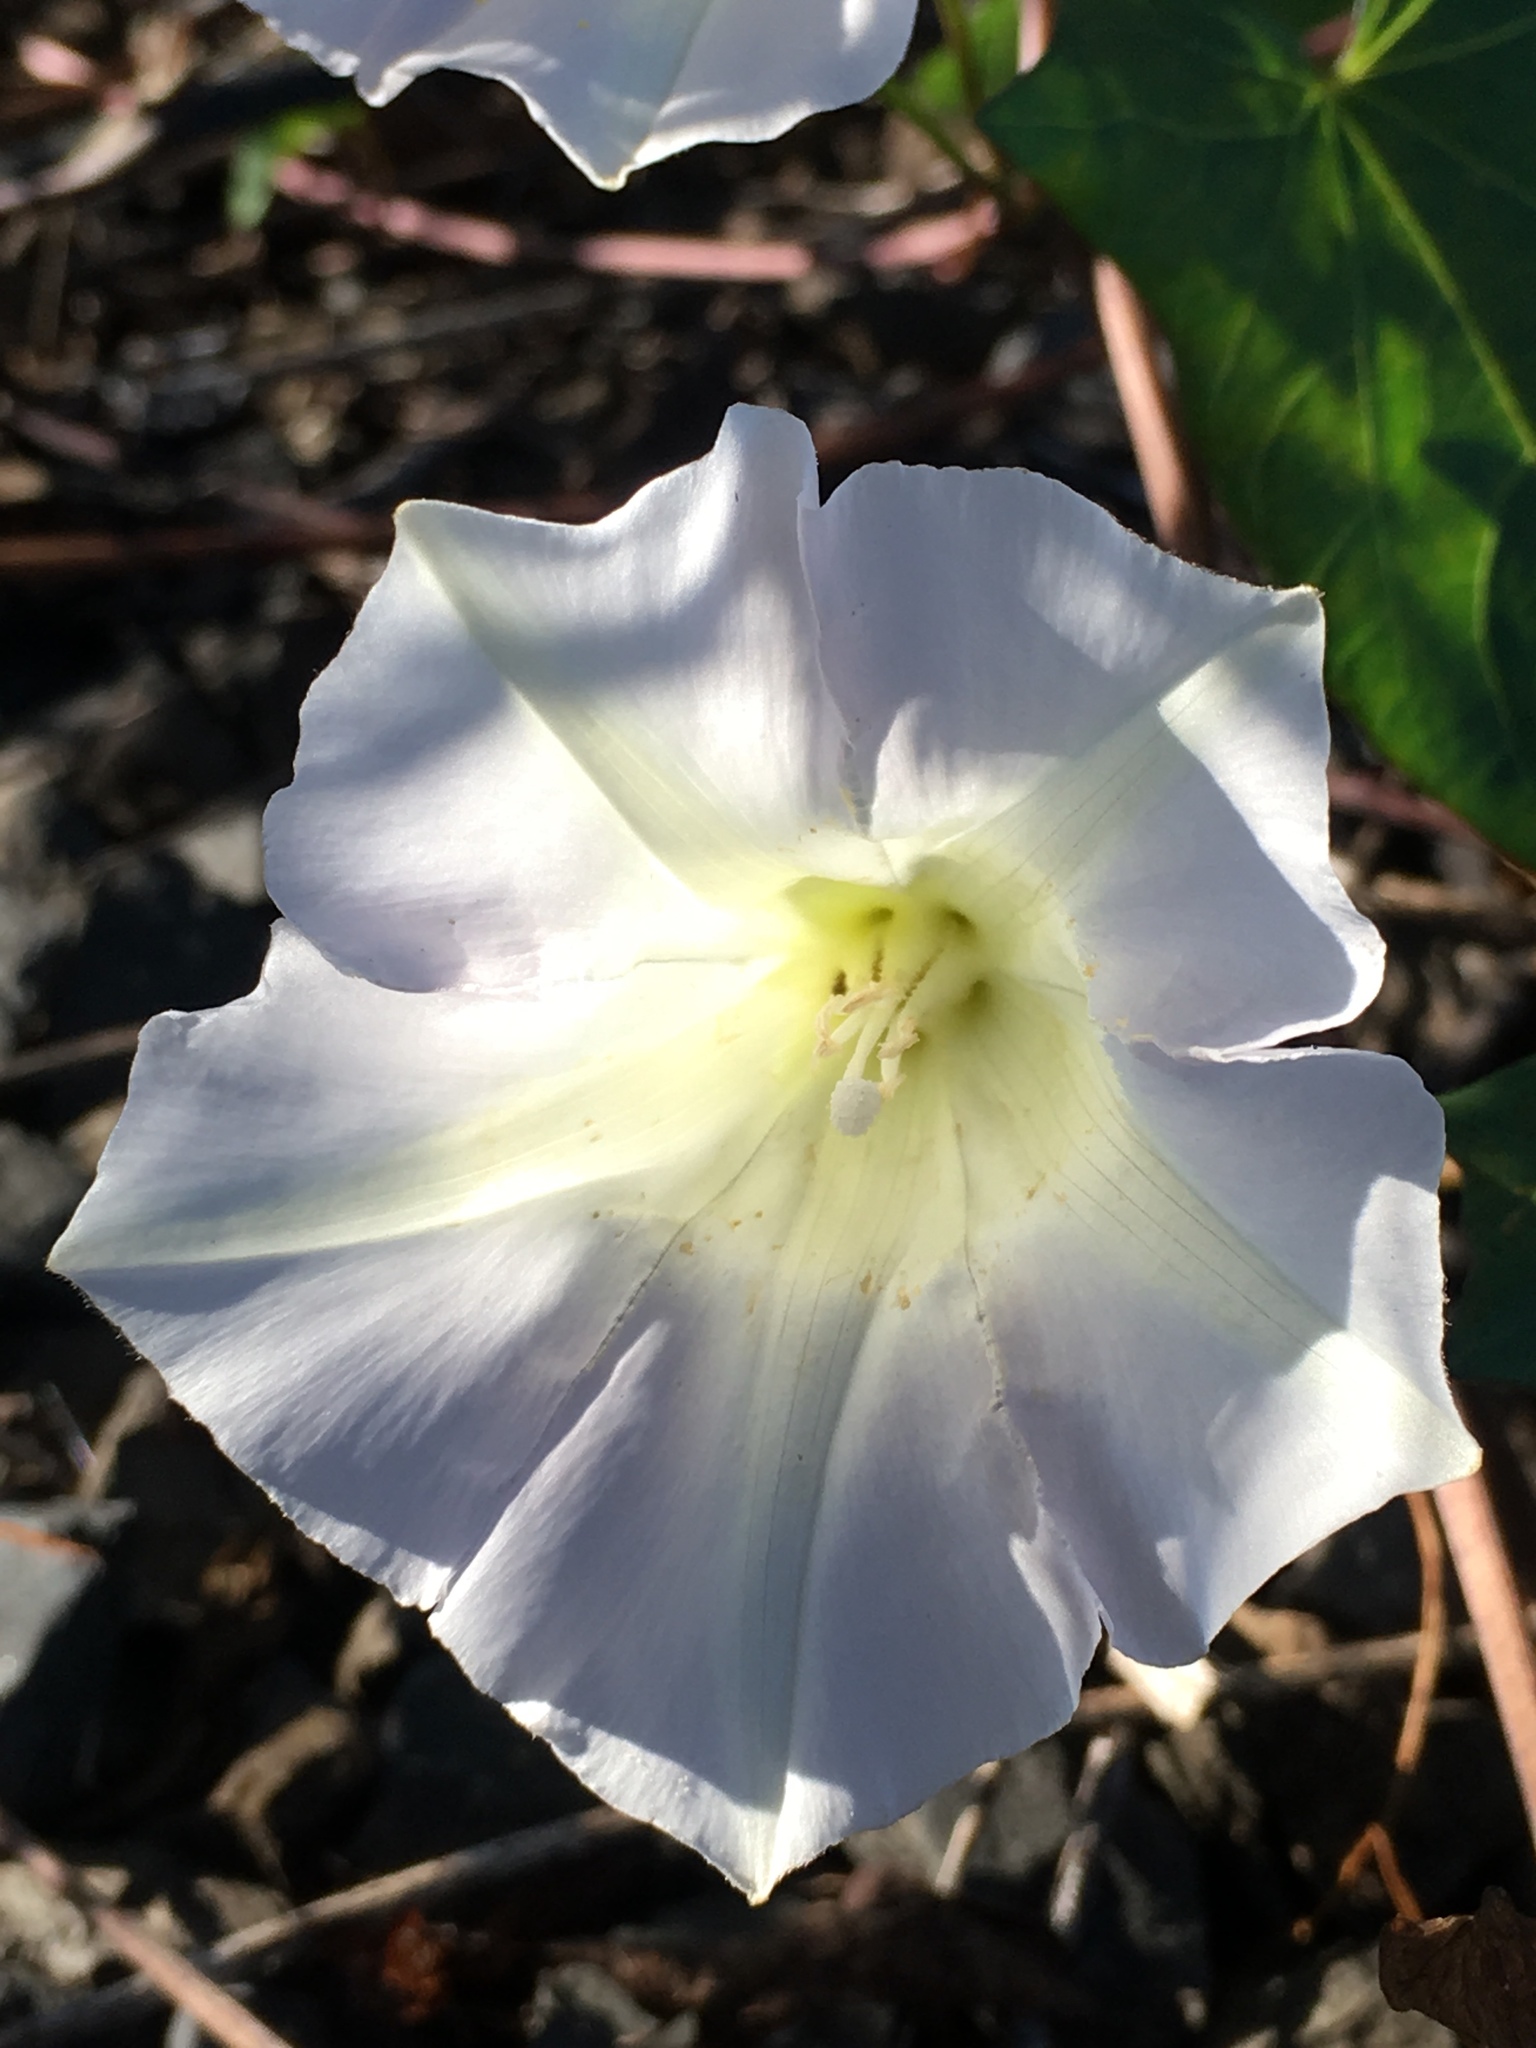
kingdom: Plantae
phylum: Tracheophyta
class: Magnoliopsida
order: Solanales
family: Convolvulaceae
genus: Calystegia
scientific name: Calystegia sepium
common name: Hedge bindweed
